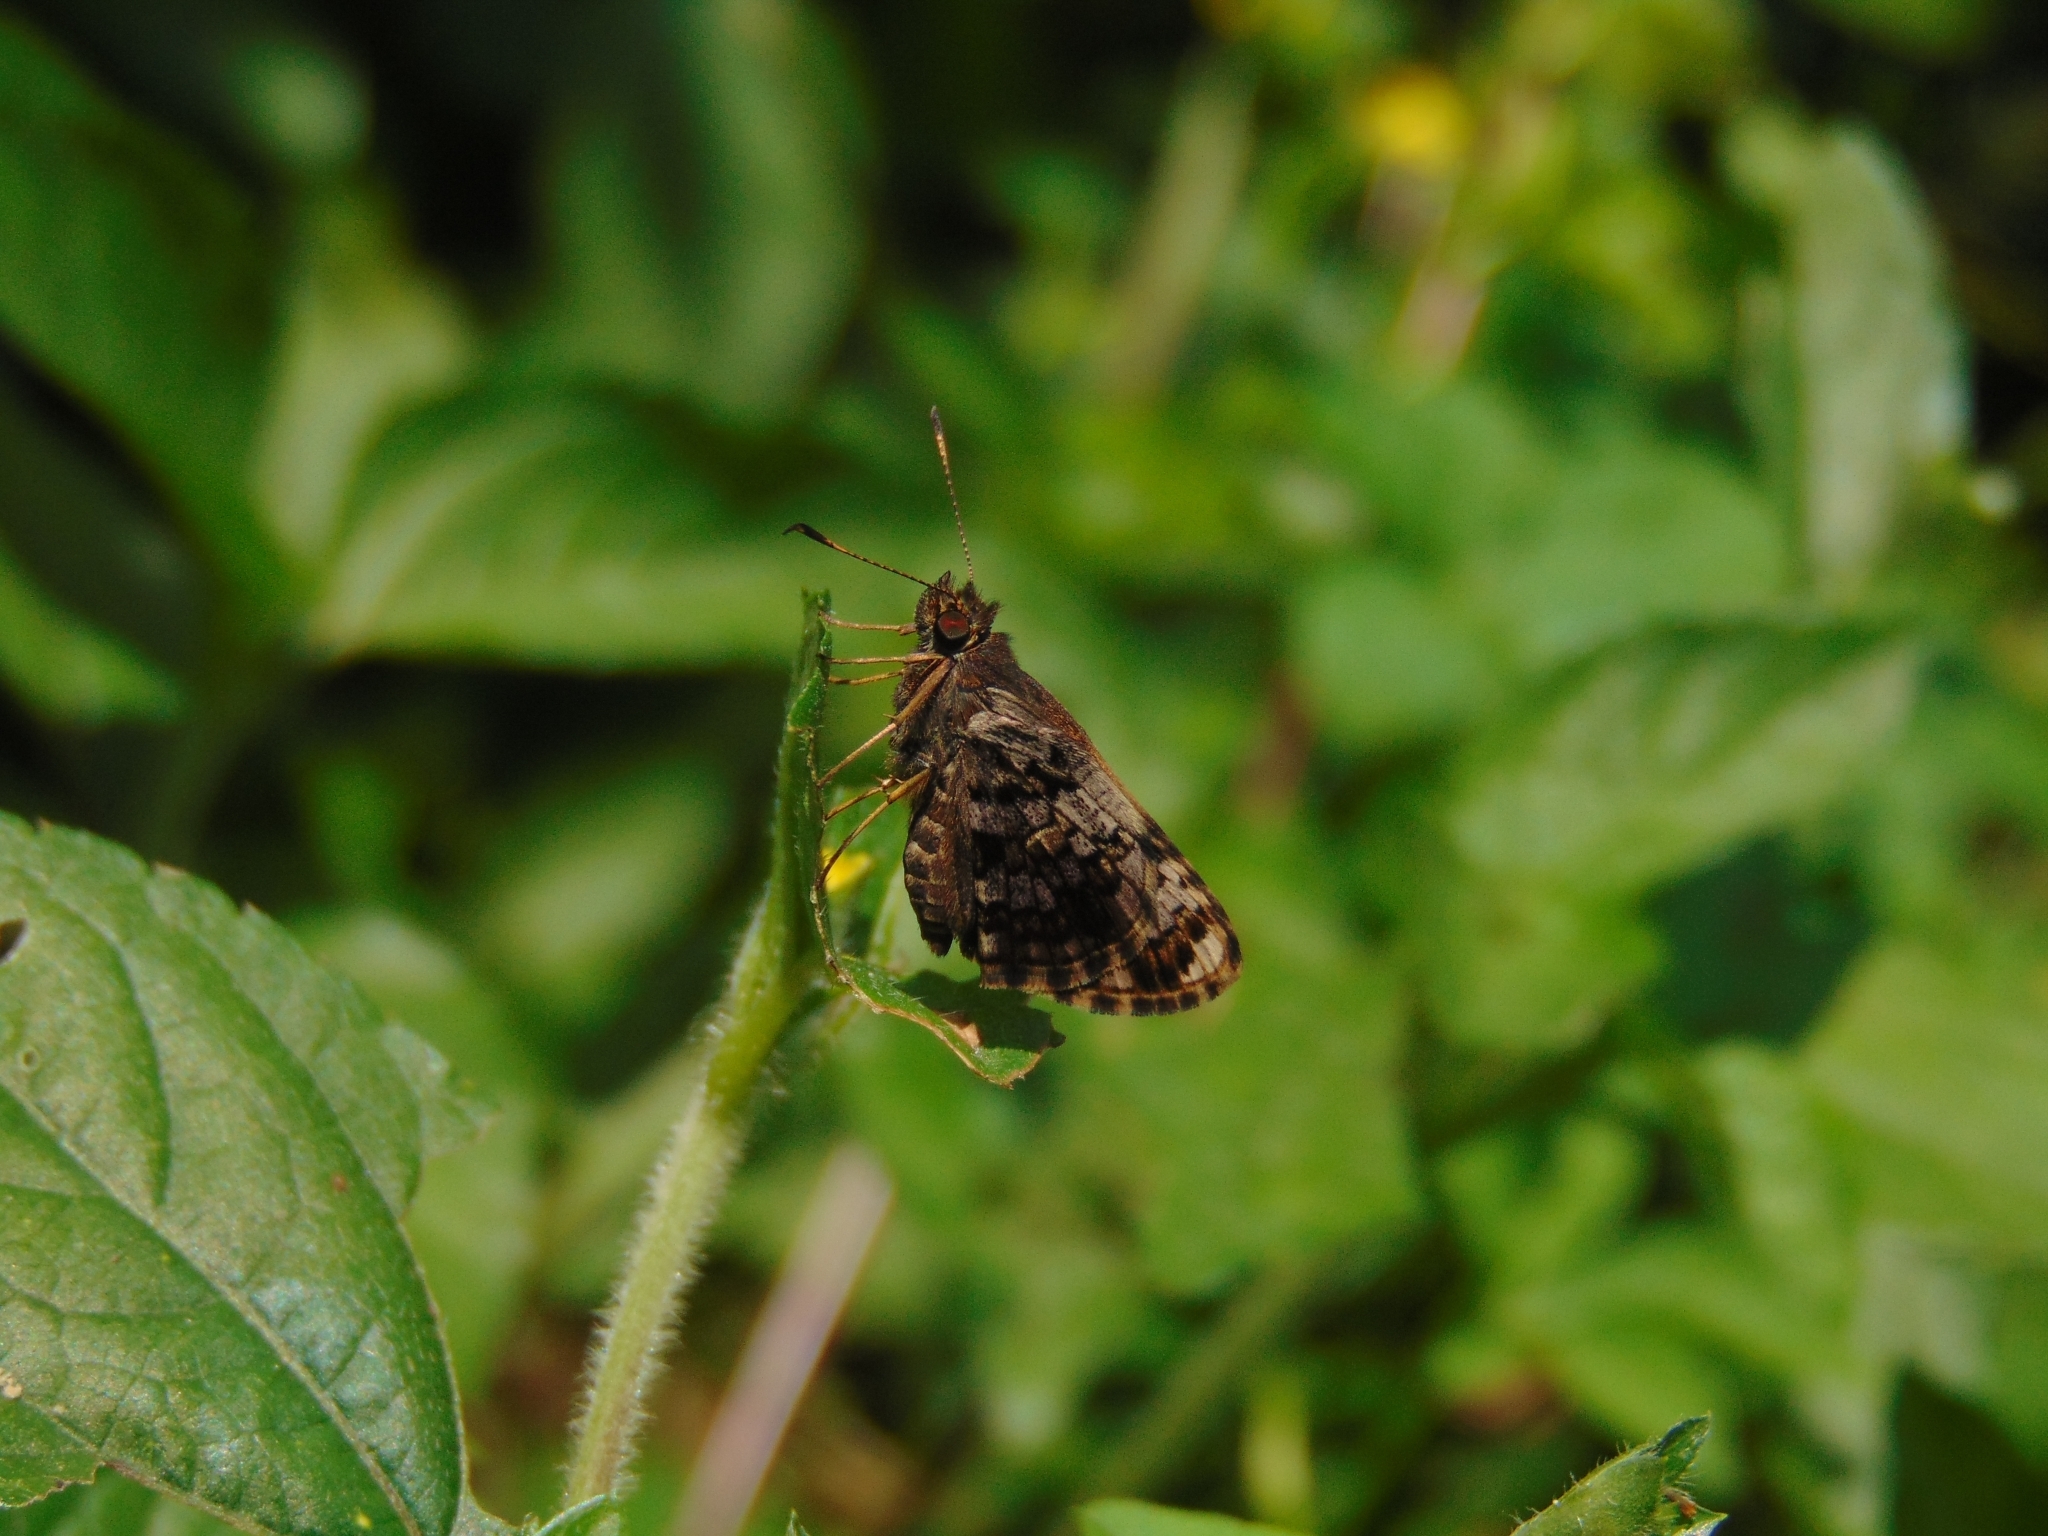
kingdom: Animalia
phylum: Arthropoda
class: Insecta
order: Lepidoptera
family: Hesperiidae
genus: Lucida
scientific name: Lucida lucia
